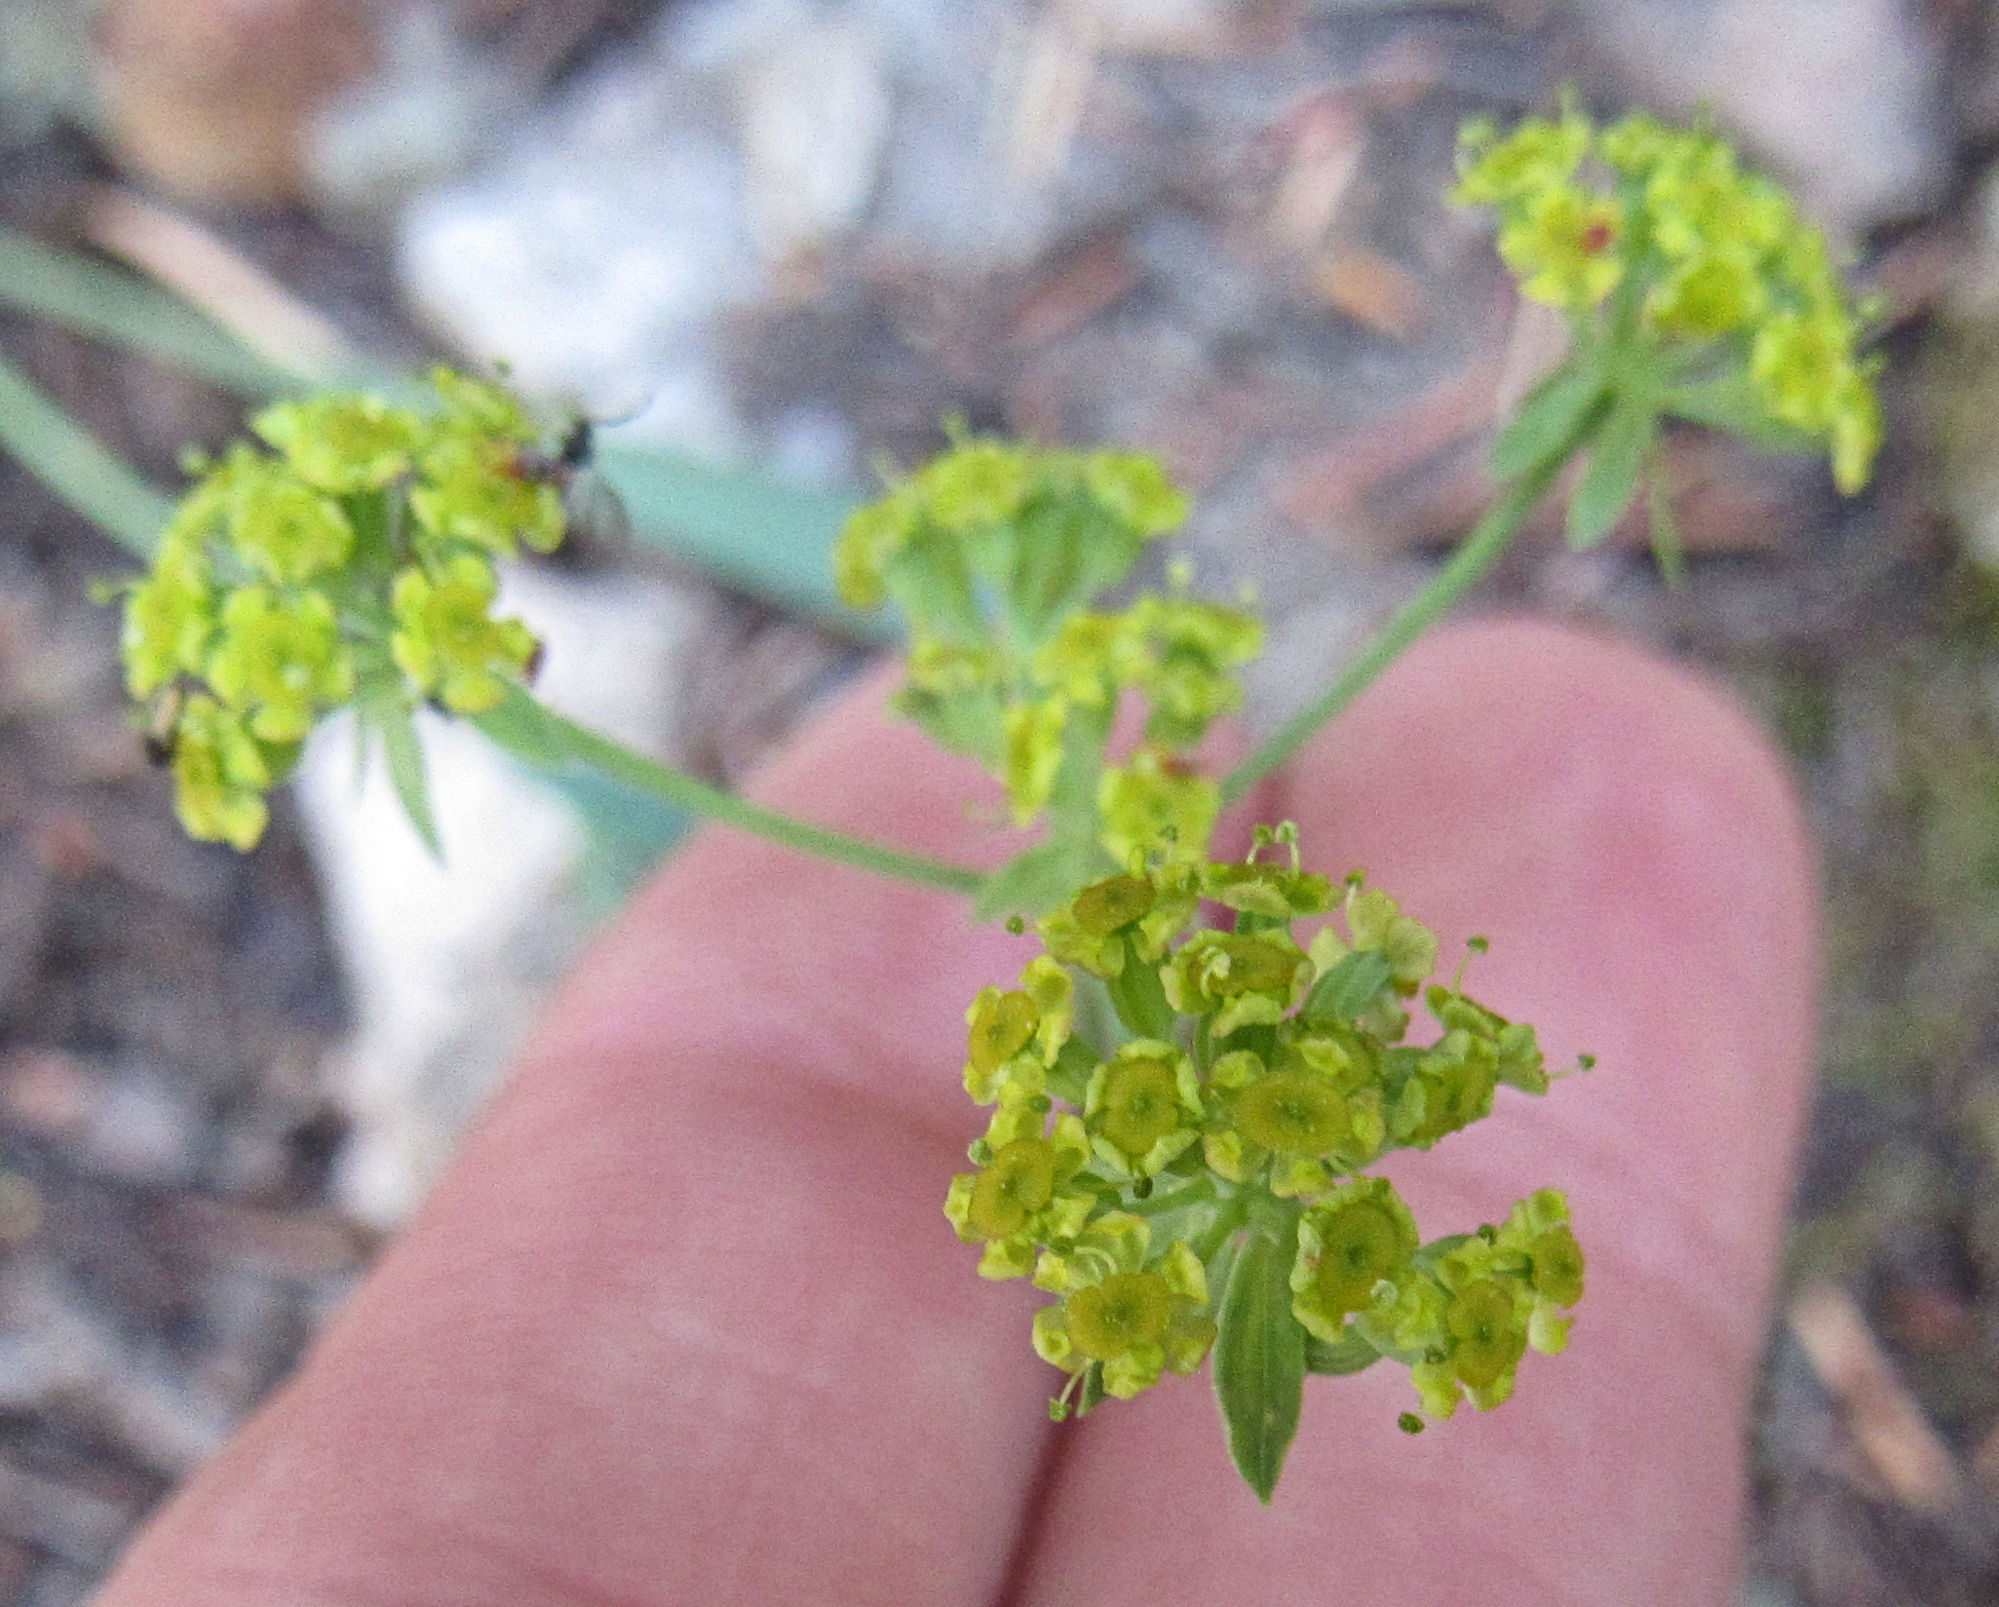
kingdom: Plantae
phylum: Tracheophyta
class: Magnoliopsida
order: Apiales
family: Apiaceae
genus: Bupleurum
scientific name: Bupleurum americanum
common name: American thoroughwax
